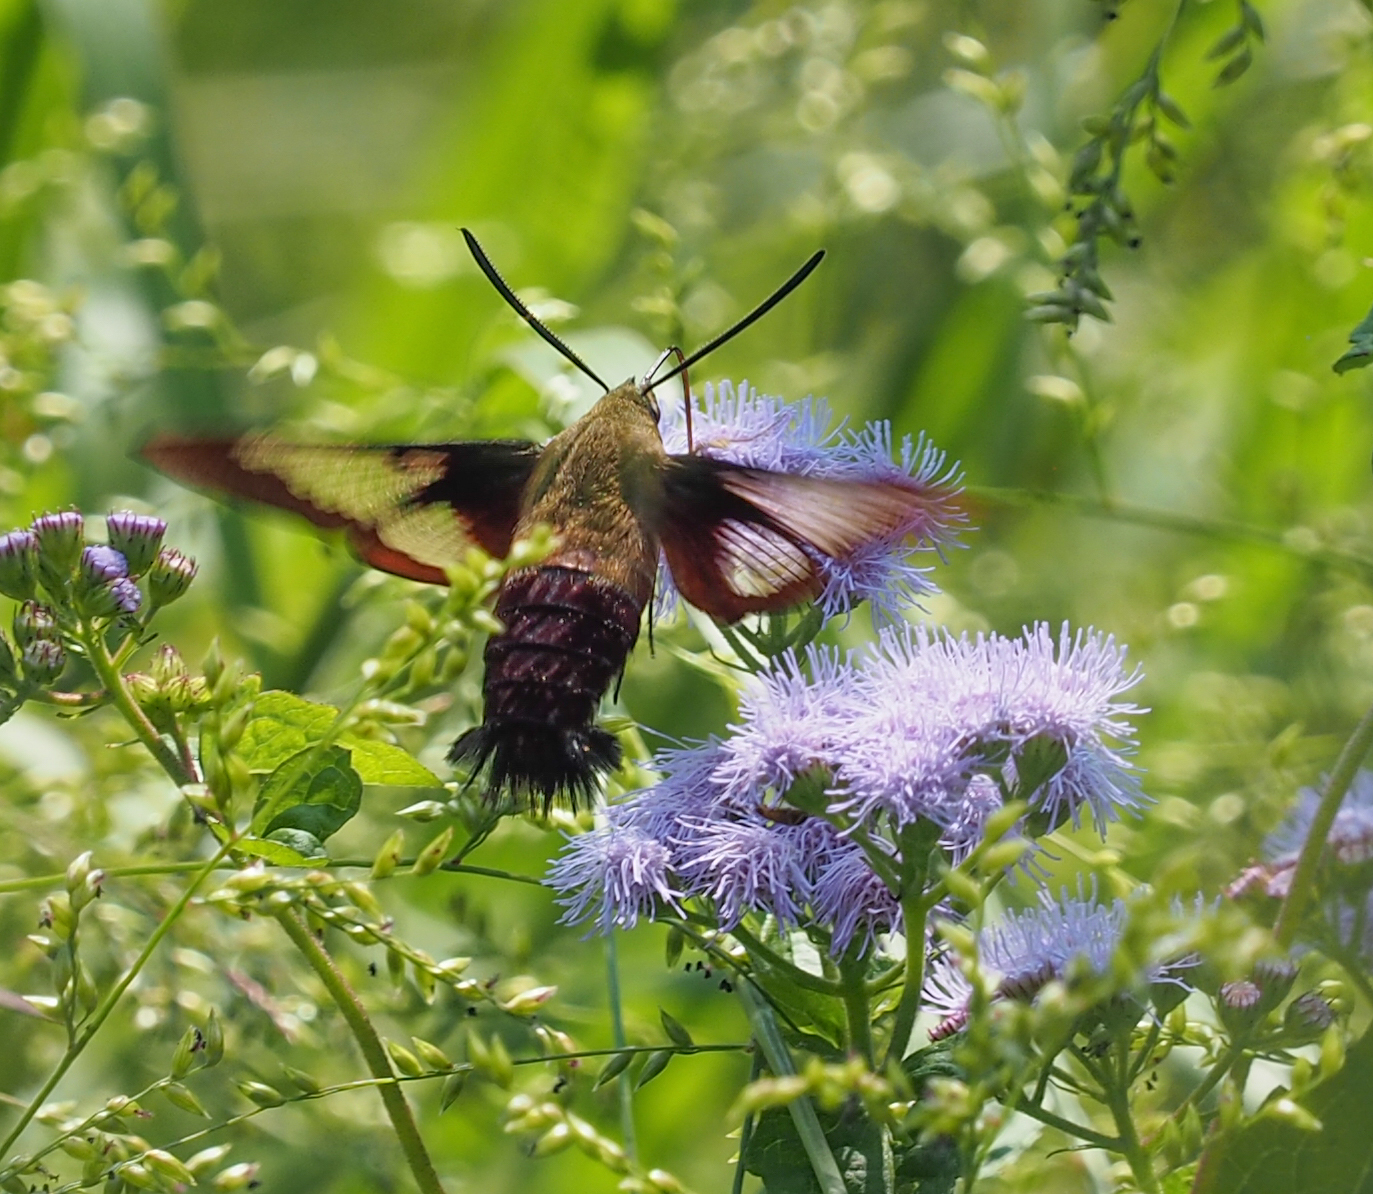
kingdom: Animalia
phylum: Arthropoda
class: Insecta
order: Lepidoptera
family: Sphingidae
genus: Hemaris
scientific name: Hemaris thysbe
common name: Common clear-wing
